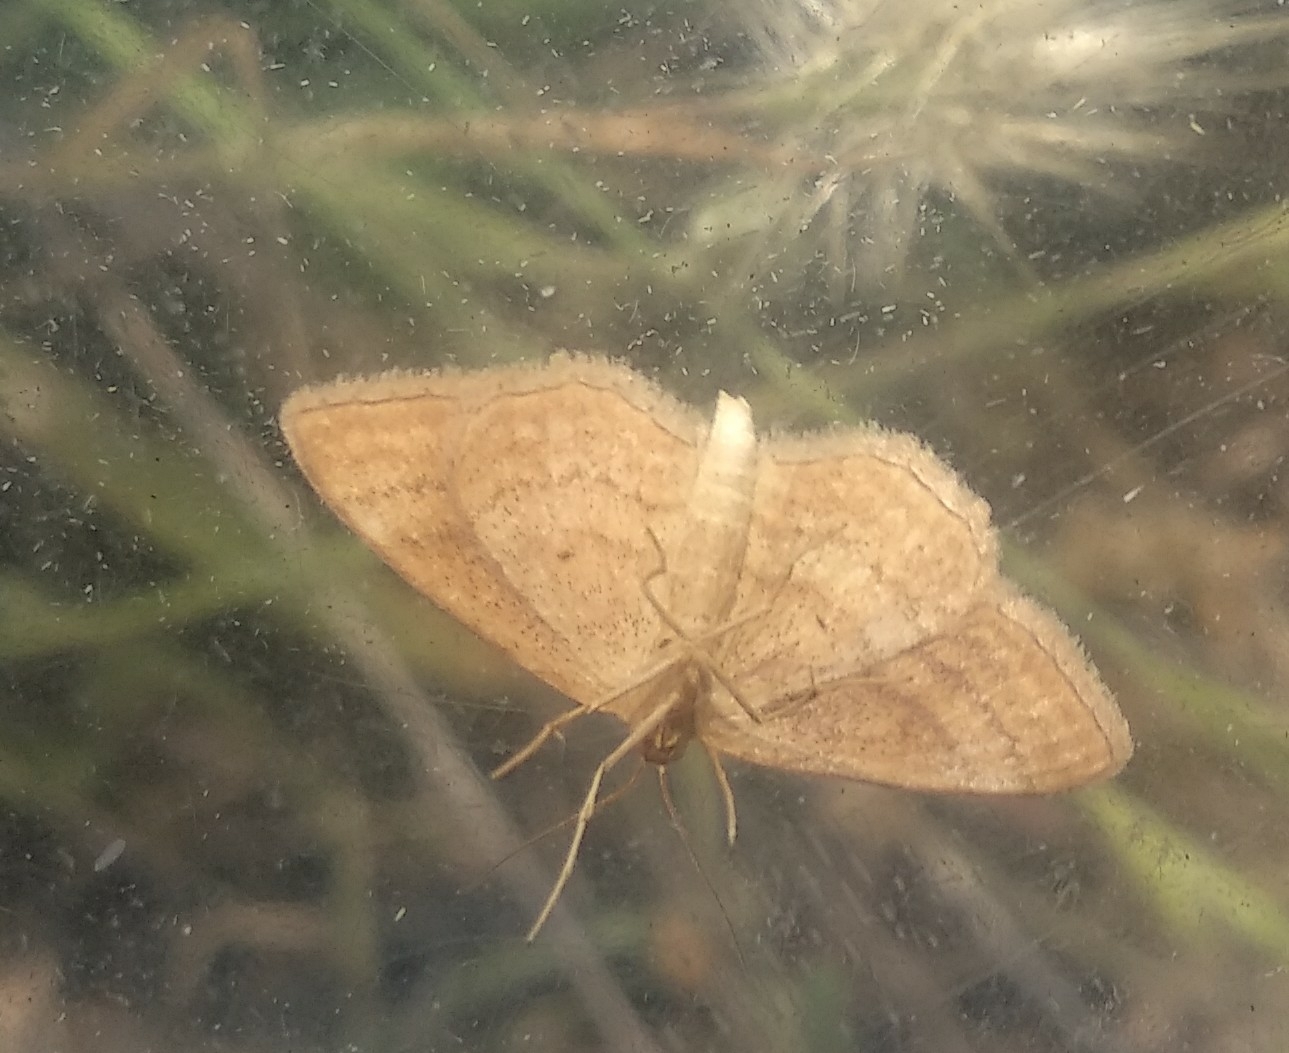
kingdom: Animalia
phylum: Arthropoda
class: Insecta
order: Lepidoptera
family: Geometridae
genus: Idaea
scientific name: Idaea ochrata
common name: Bright wave
